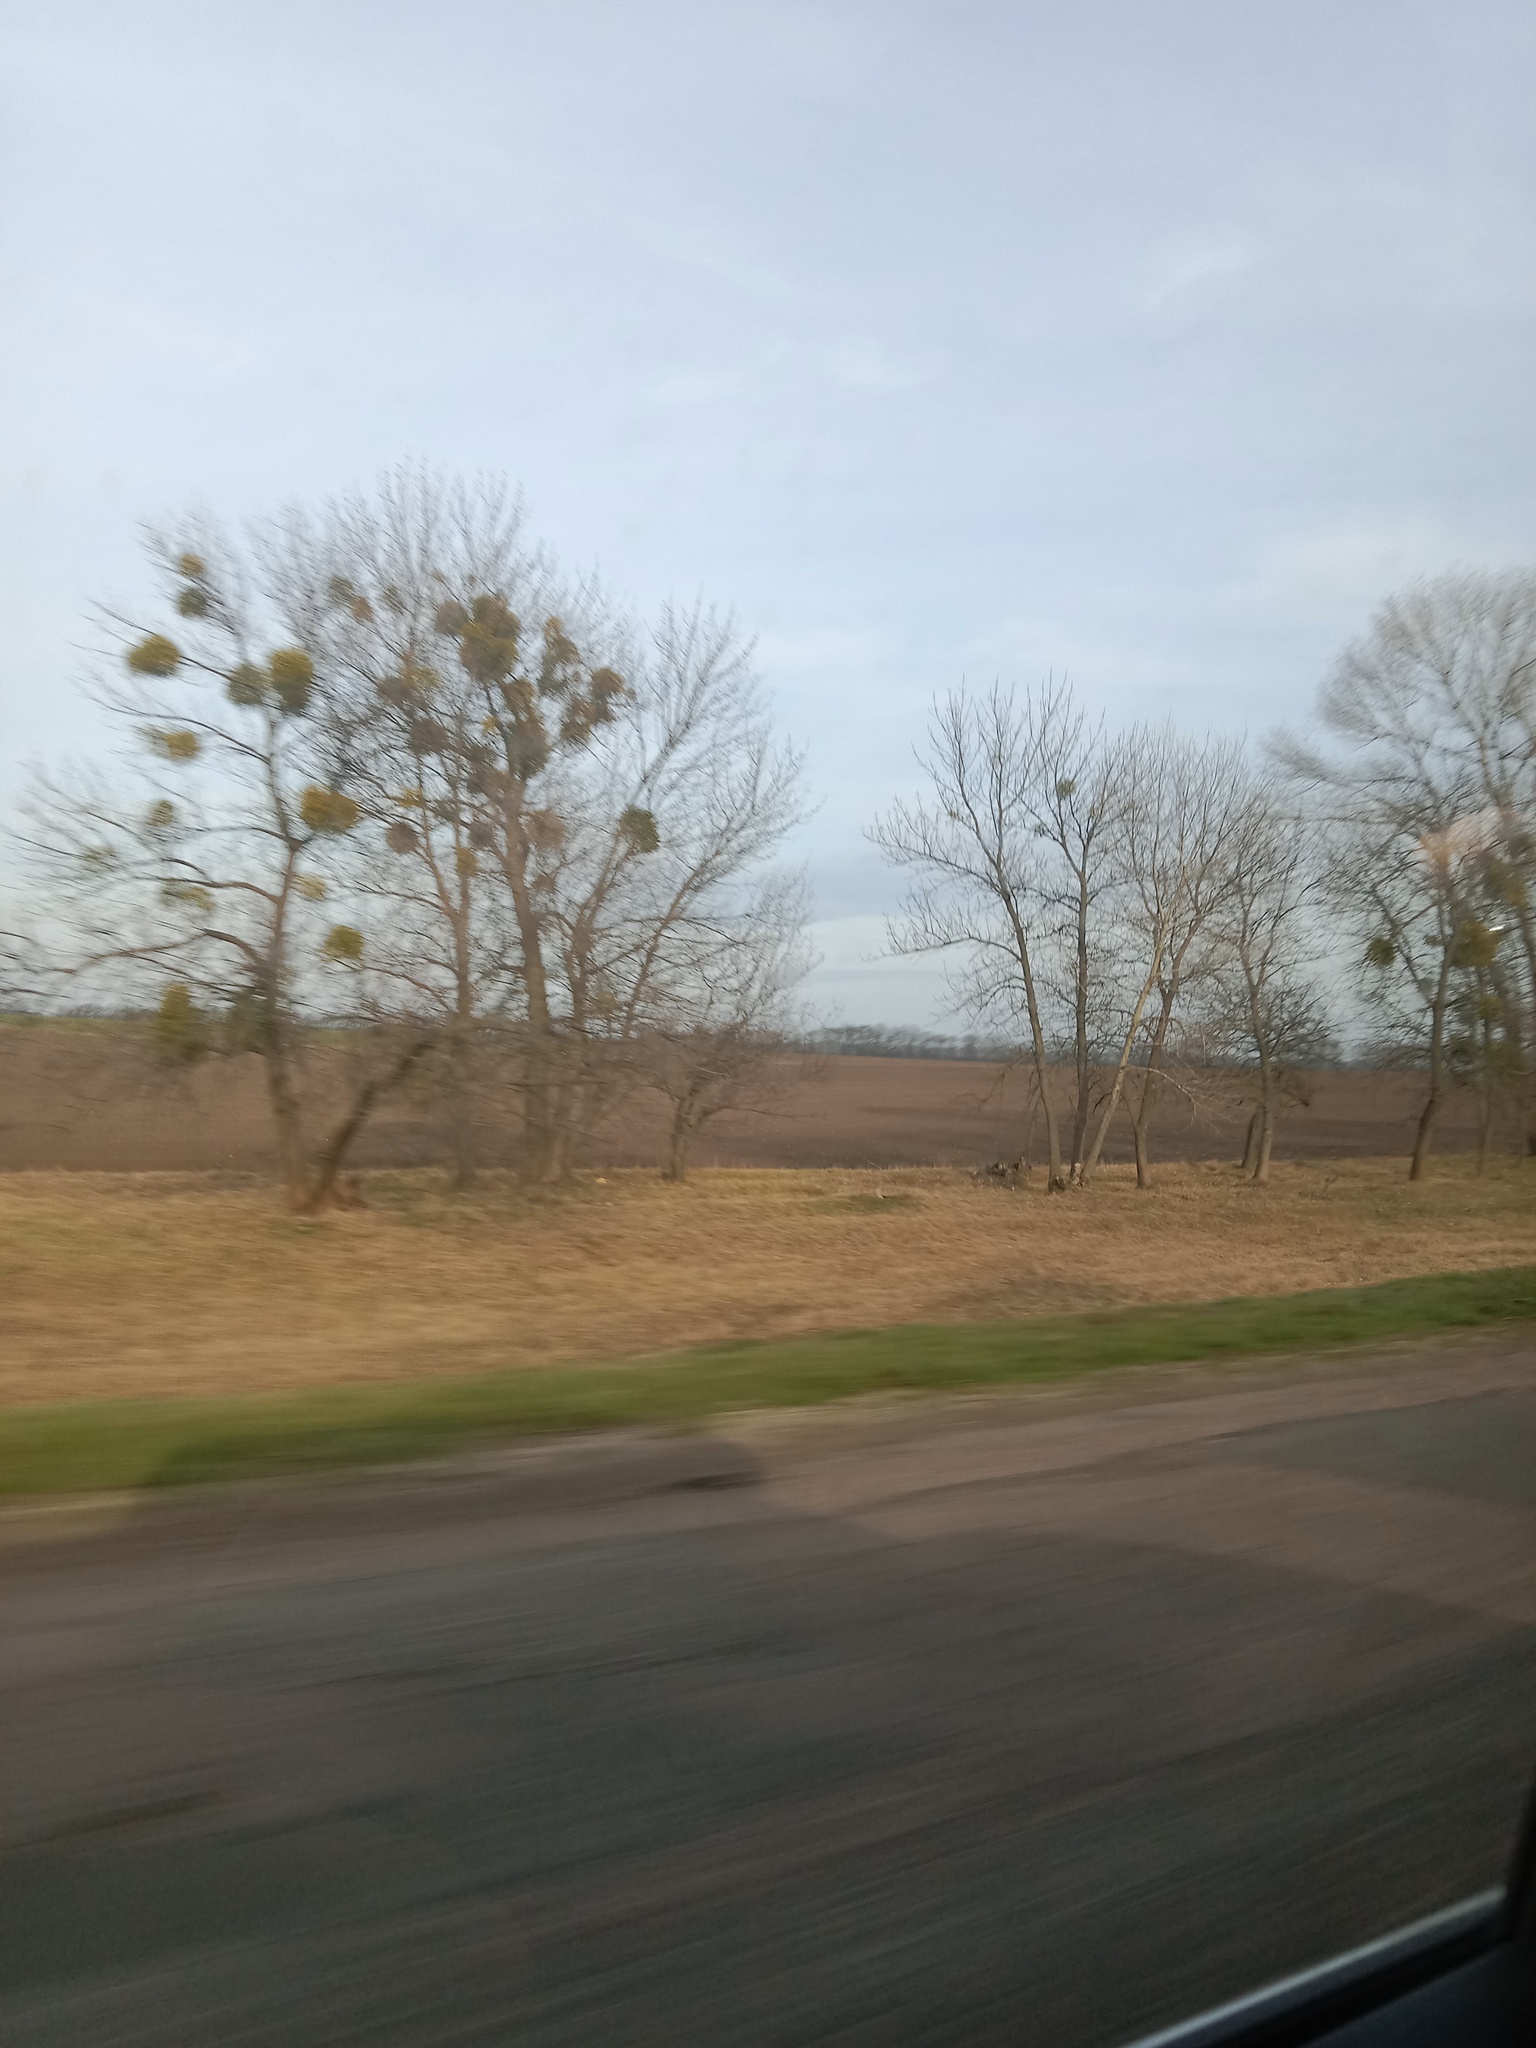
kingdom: Plantae
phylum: Tracheophyta
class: Magnoliopsida
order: Santalales
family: Viscaceae
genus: Viscum
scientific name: Viscum album
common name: Mistletoe
